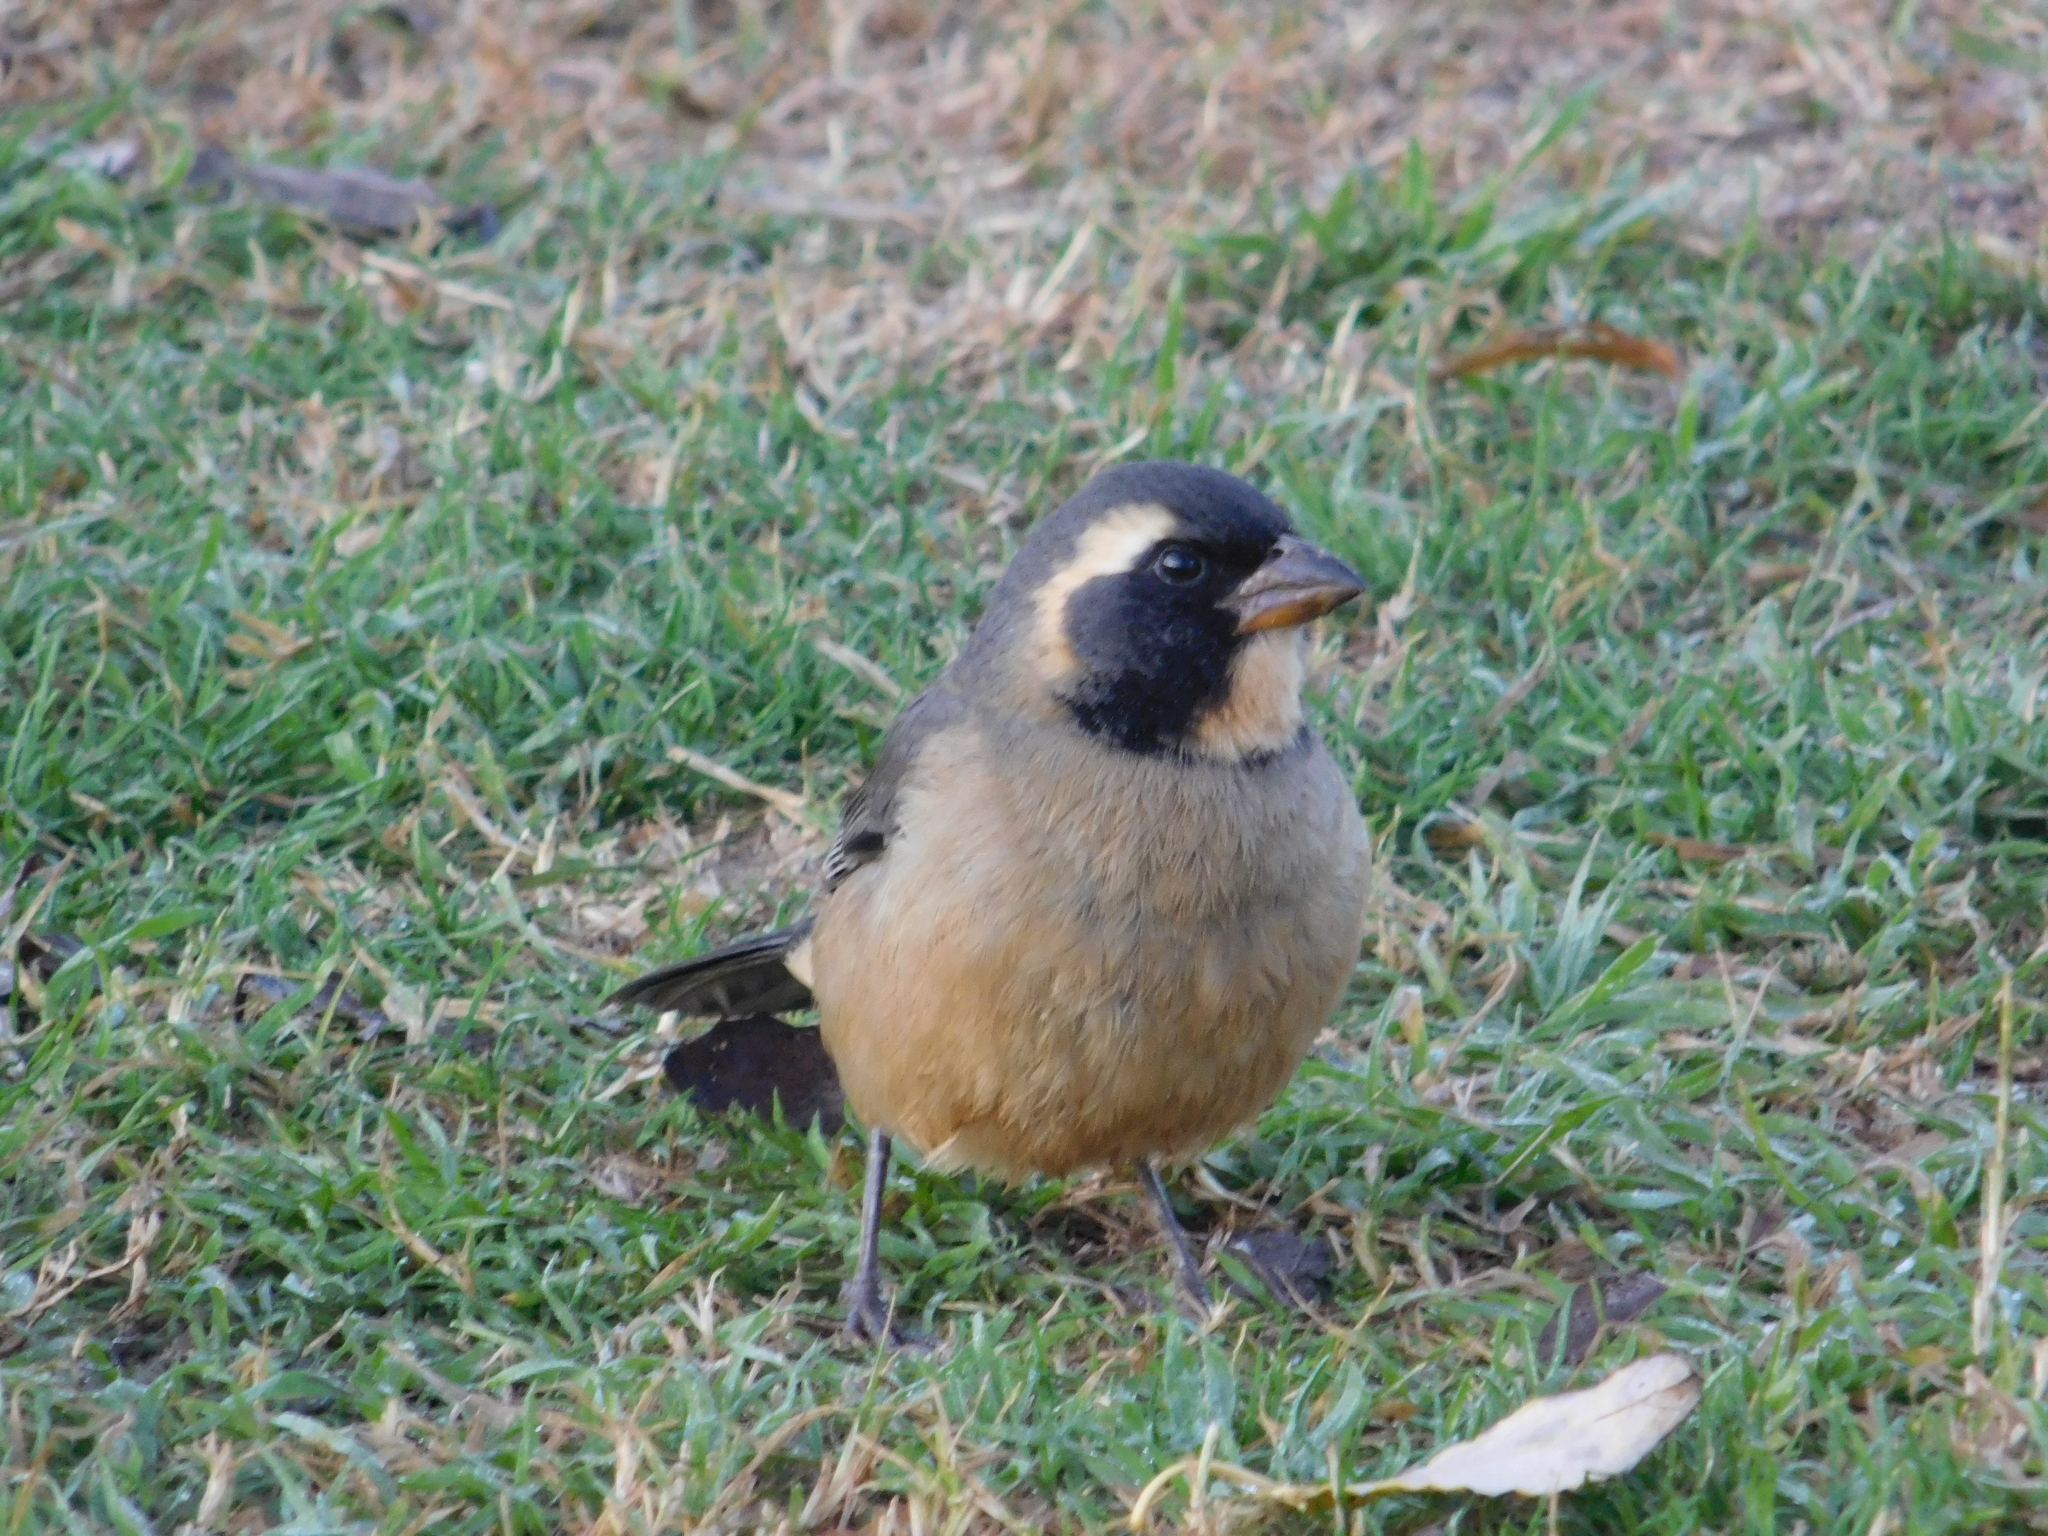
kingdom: Animalia
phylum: Chordata
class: Aves
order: Passeriformes
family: Thraupidae
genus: Saltator
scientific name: Saltator aurantiirostris
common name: Golden-billed saltator
